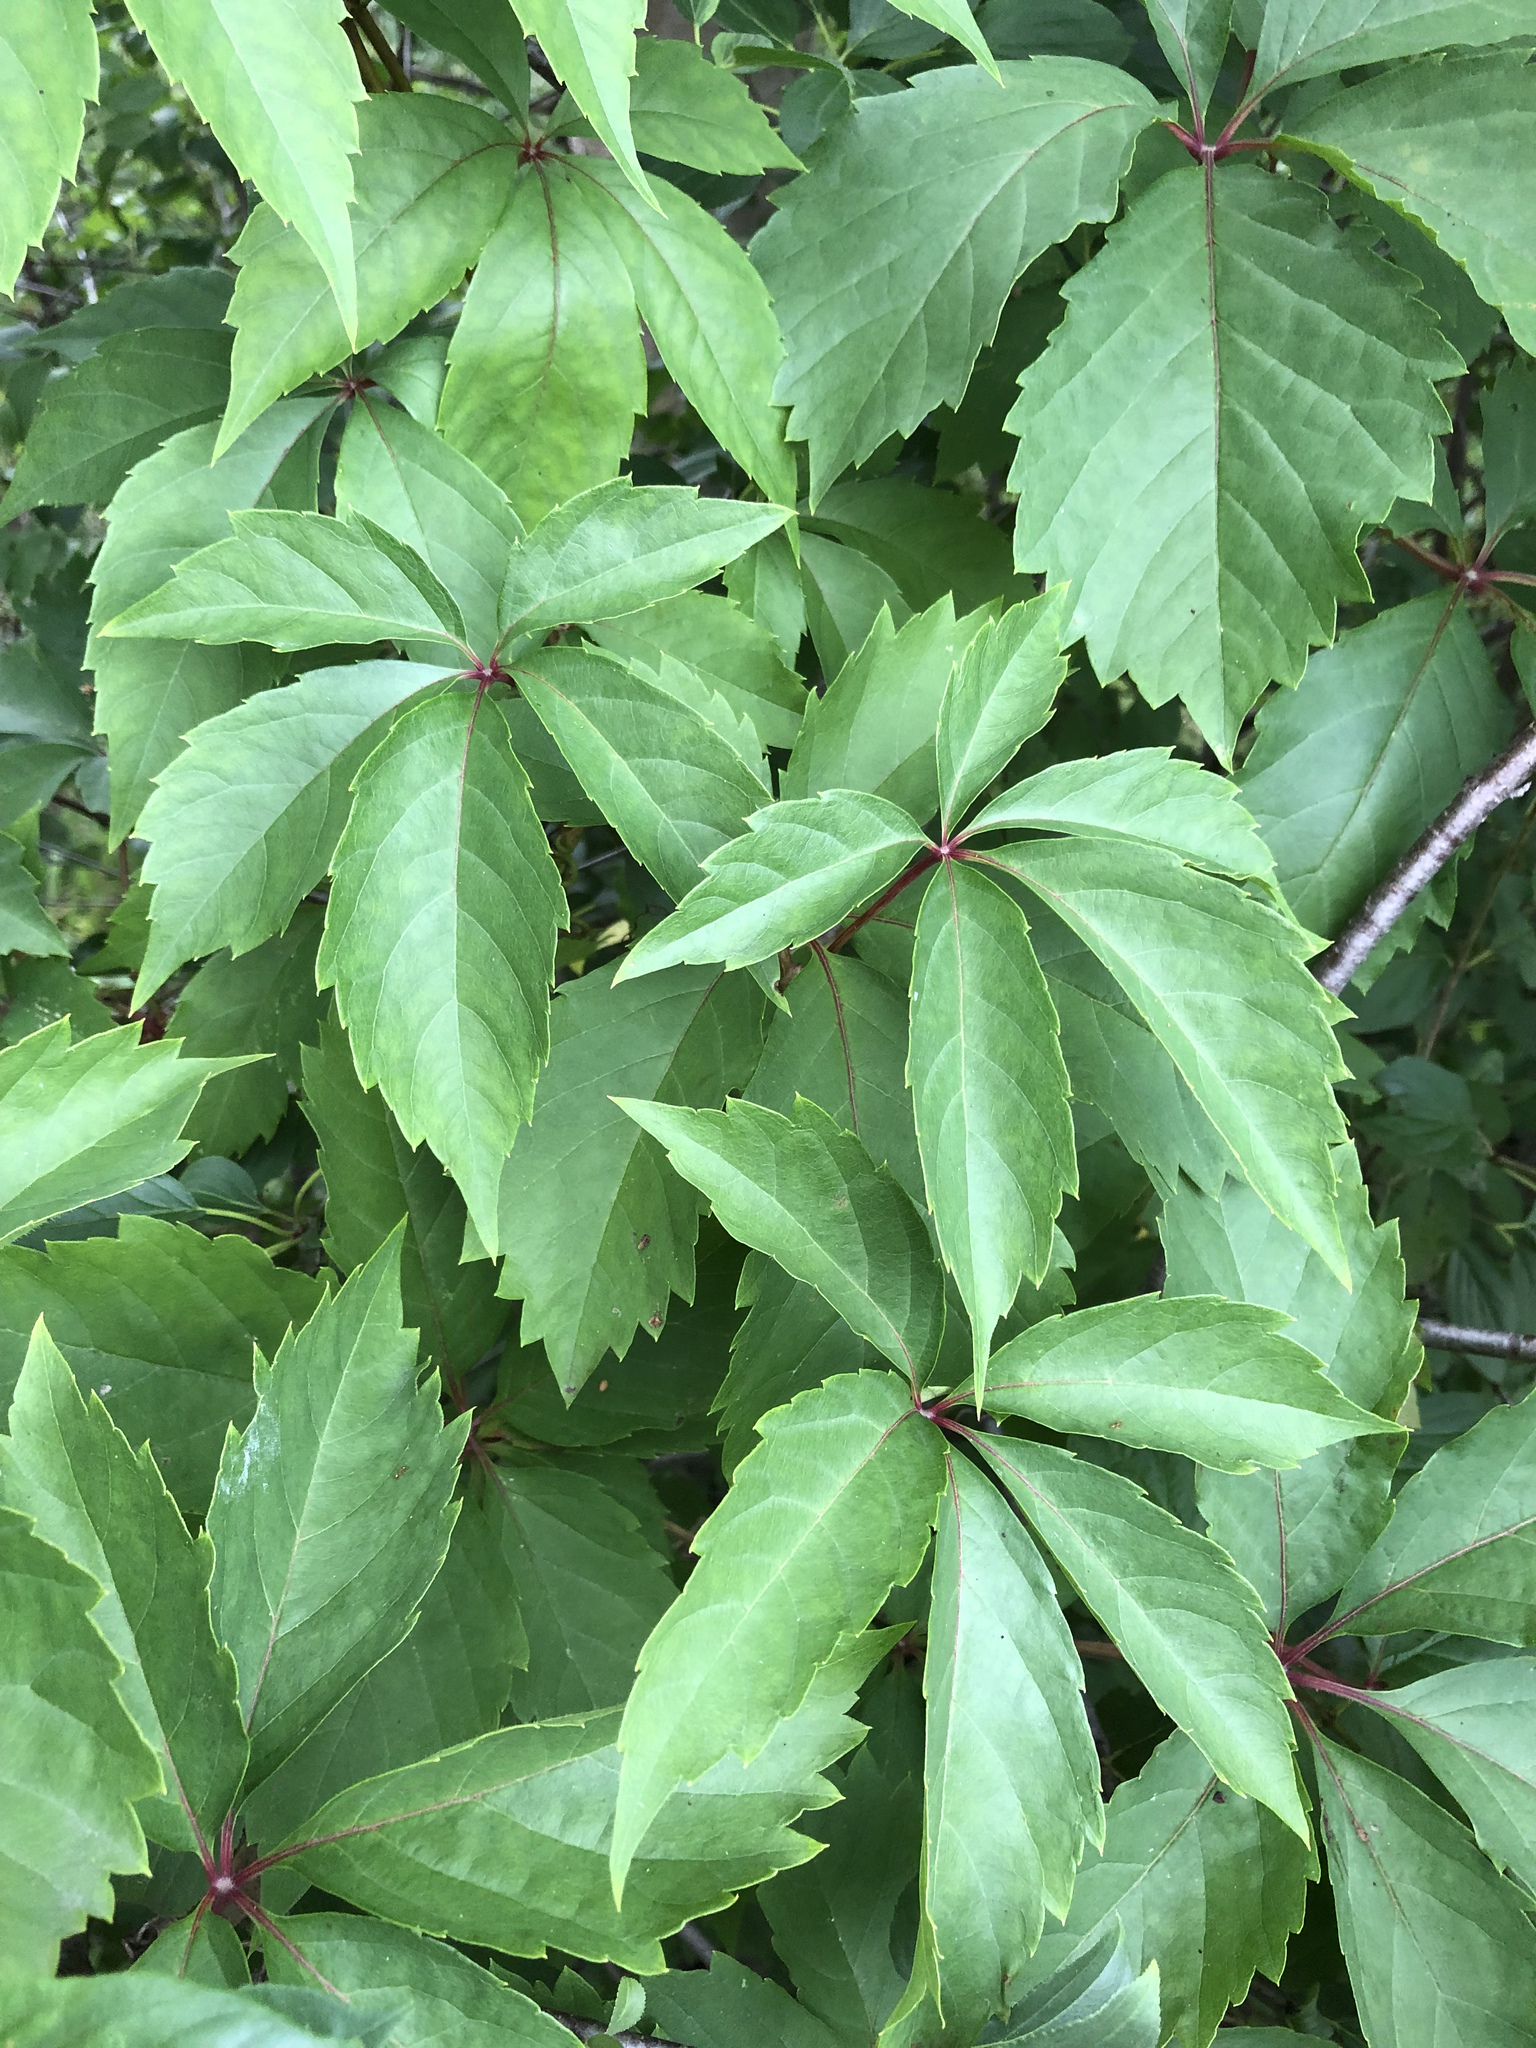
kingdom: Plantae
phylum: Tracheophyta
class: Magnoliopsida
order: Vitales
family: Vitaceae
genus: Parthenocissus
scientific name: Parthenocissus quinquefolia
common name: Virginia-creeper
